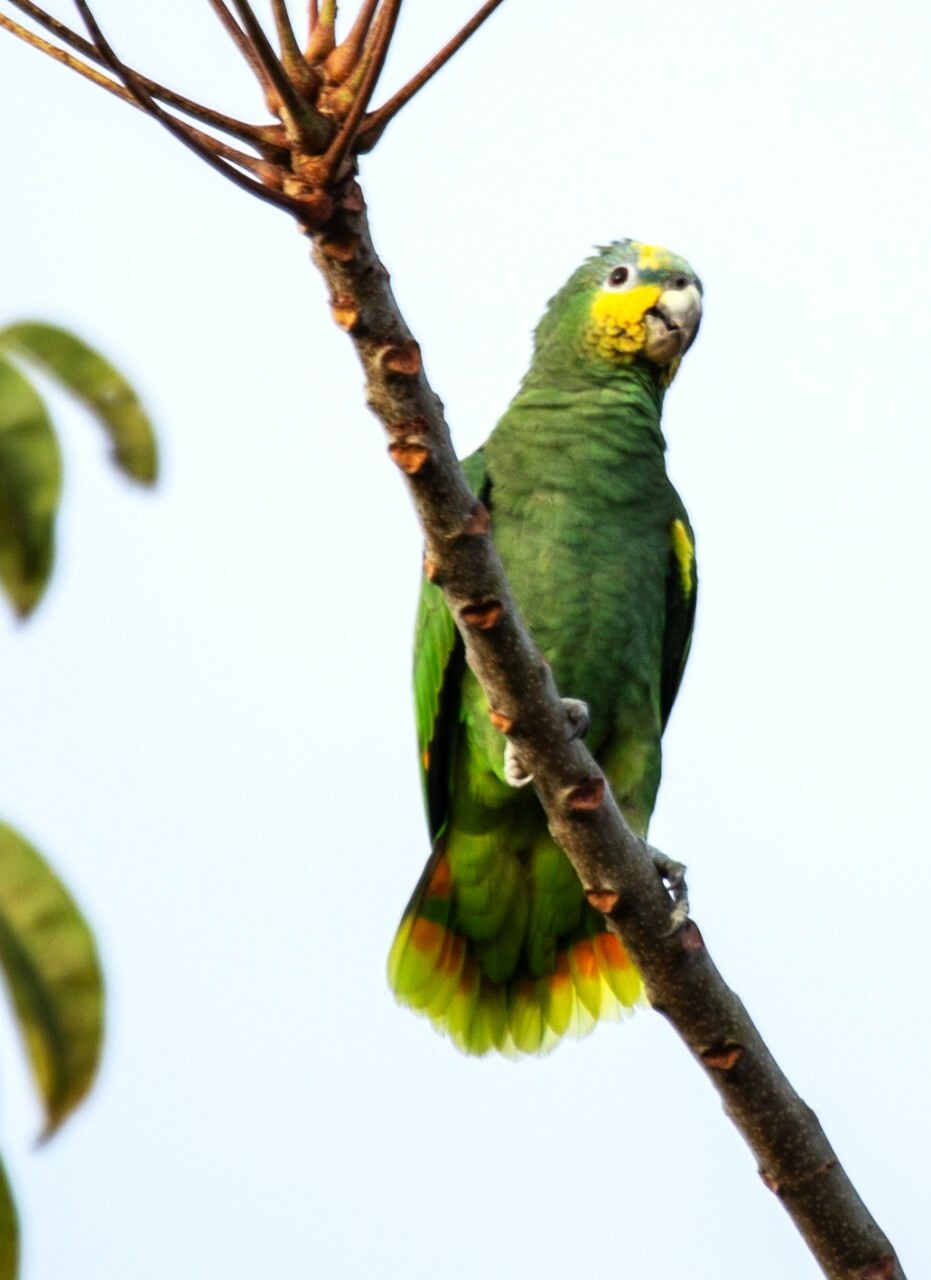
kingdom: Animalia
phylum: Chordata
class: Aves
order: Psittaciformes
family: Psittacidae
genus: Amazona
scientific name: Amazona amazonica
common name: Orange-winged amazon
